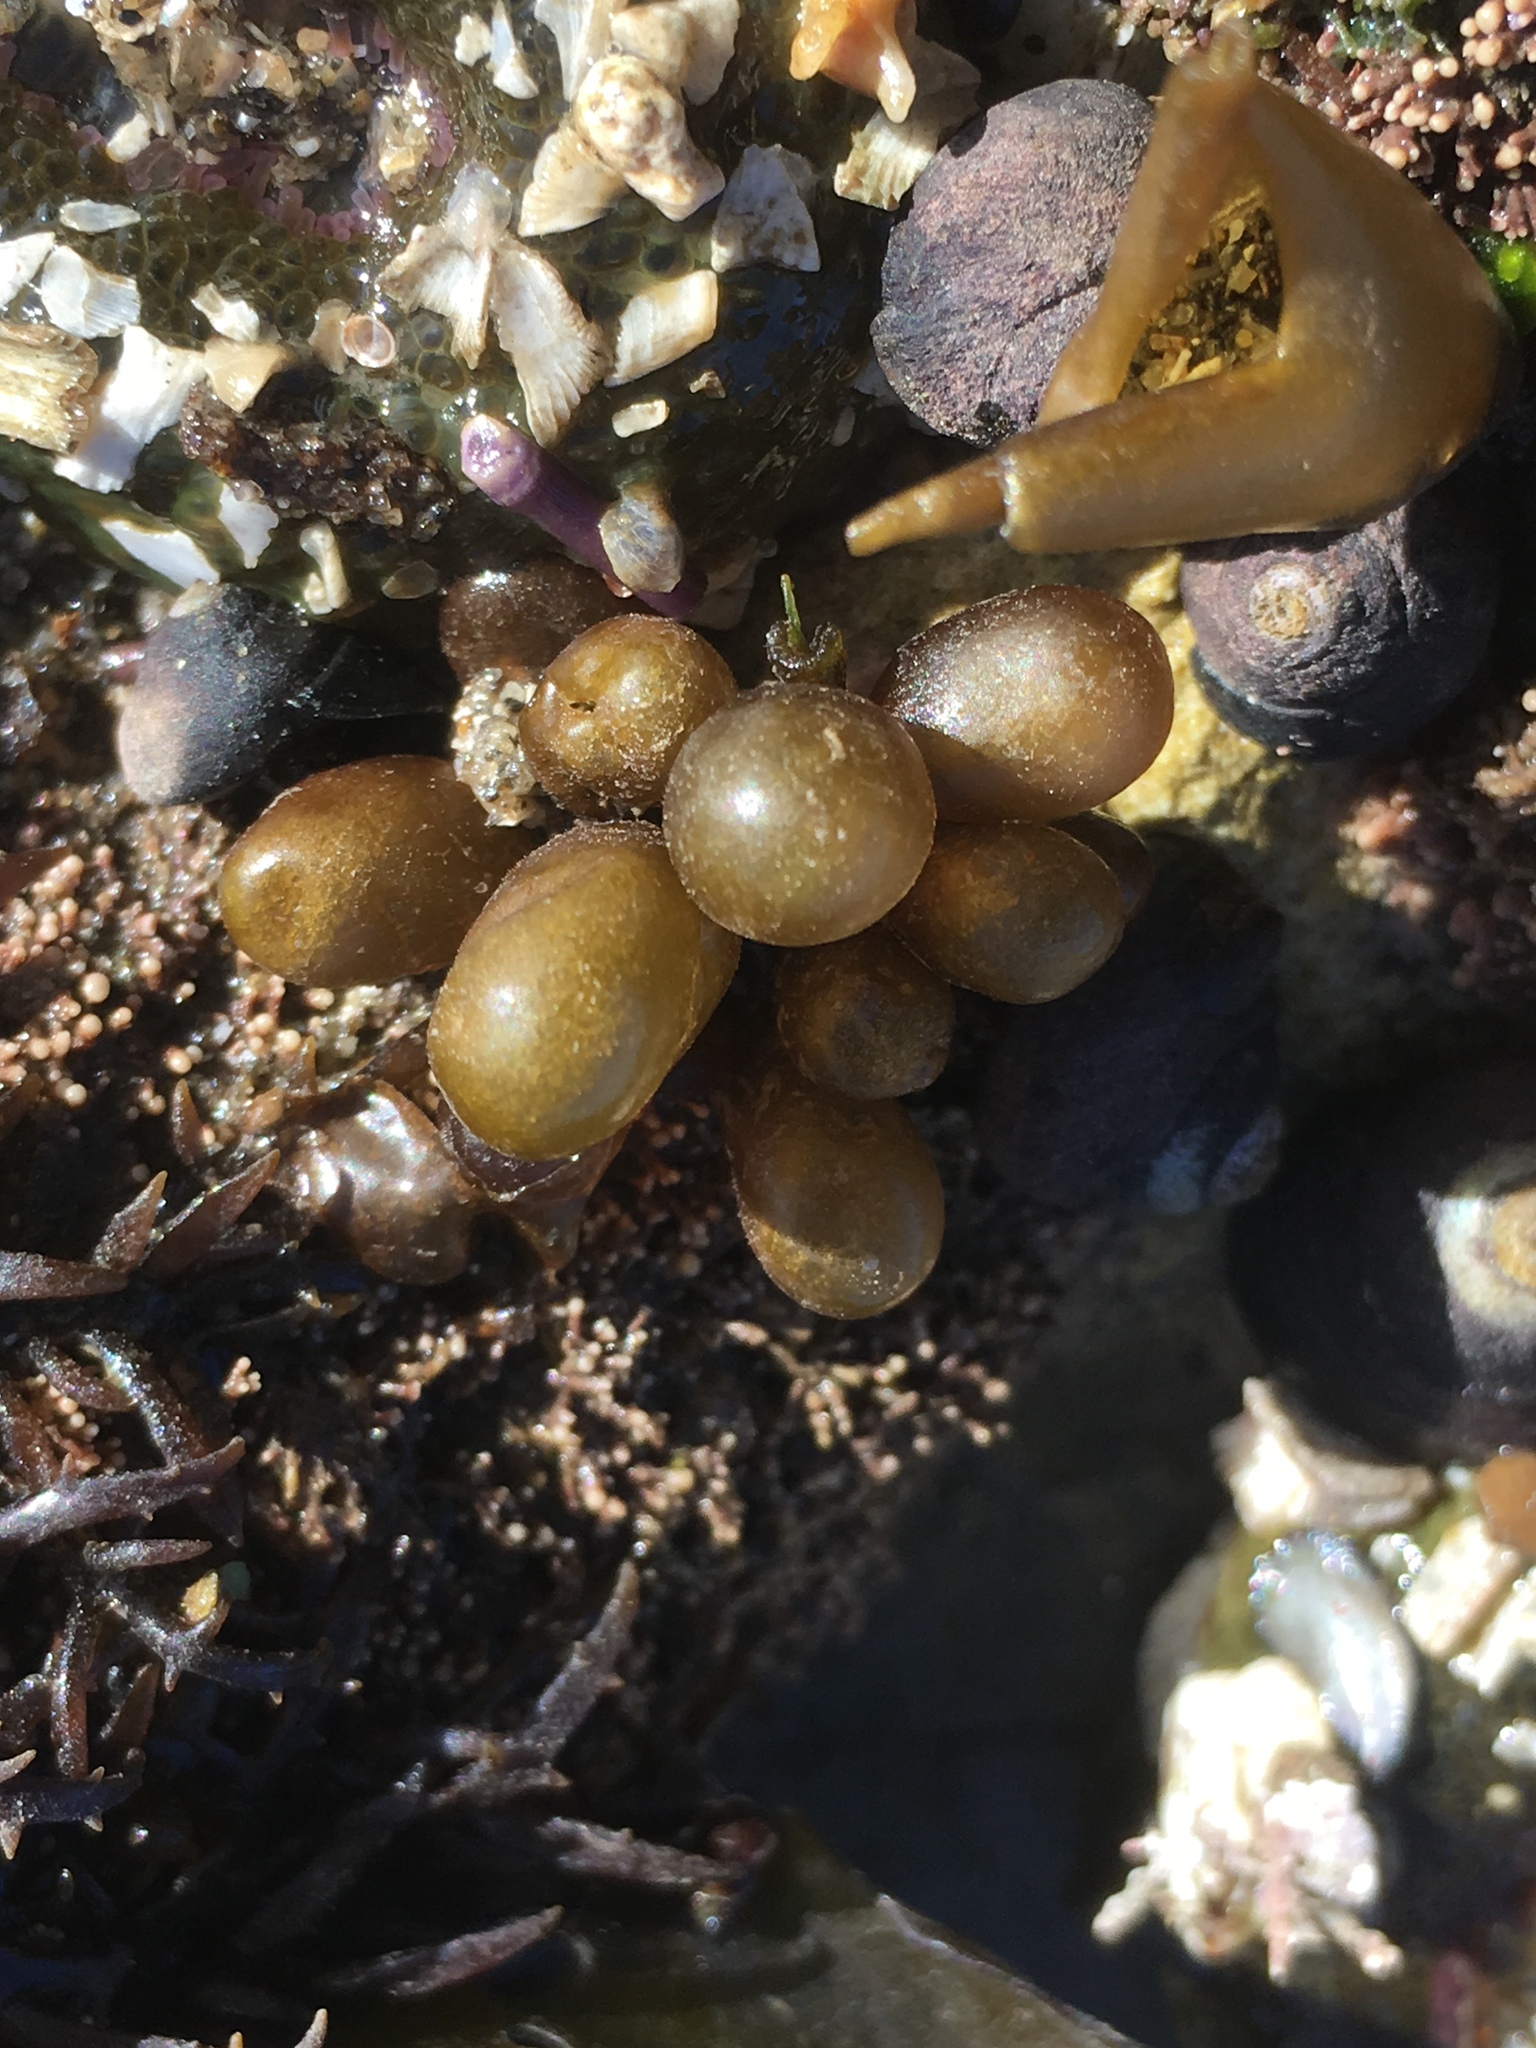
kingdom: Plantae
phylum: Rhodophyta
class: Florideophyceae
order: Palmariales
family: Palmariaceae
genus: Halosaccion
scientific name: Halosaccion glandiforme
